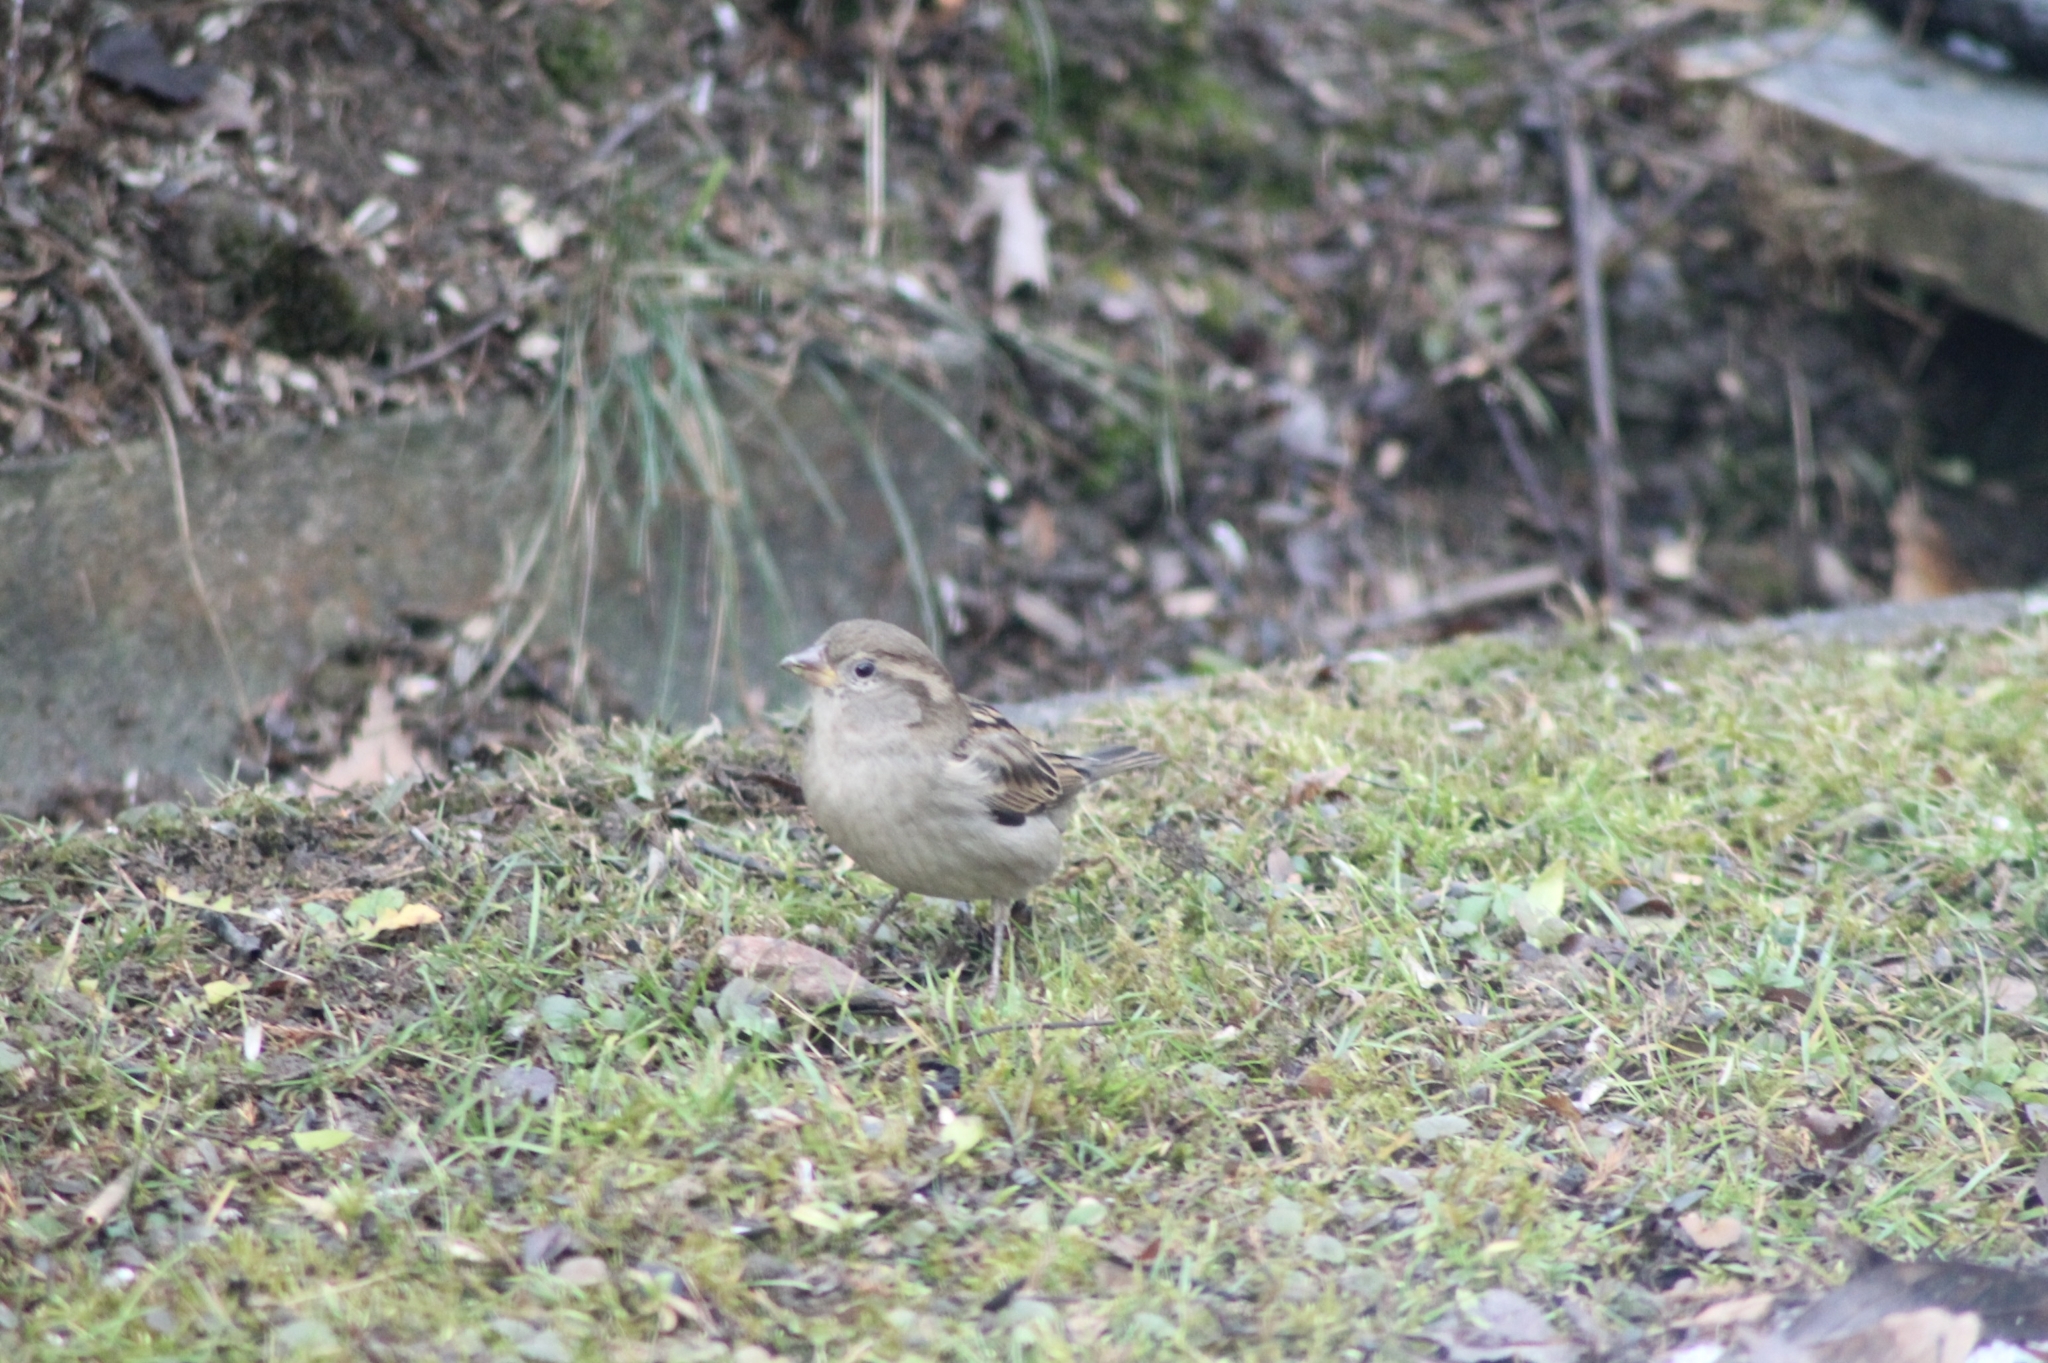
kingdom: Animalia
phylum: Chordata
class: Aves
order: Passeriformes
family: Passeridae
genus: Passer
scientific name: Passer domesticus
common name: House sparrow
